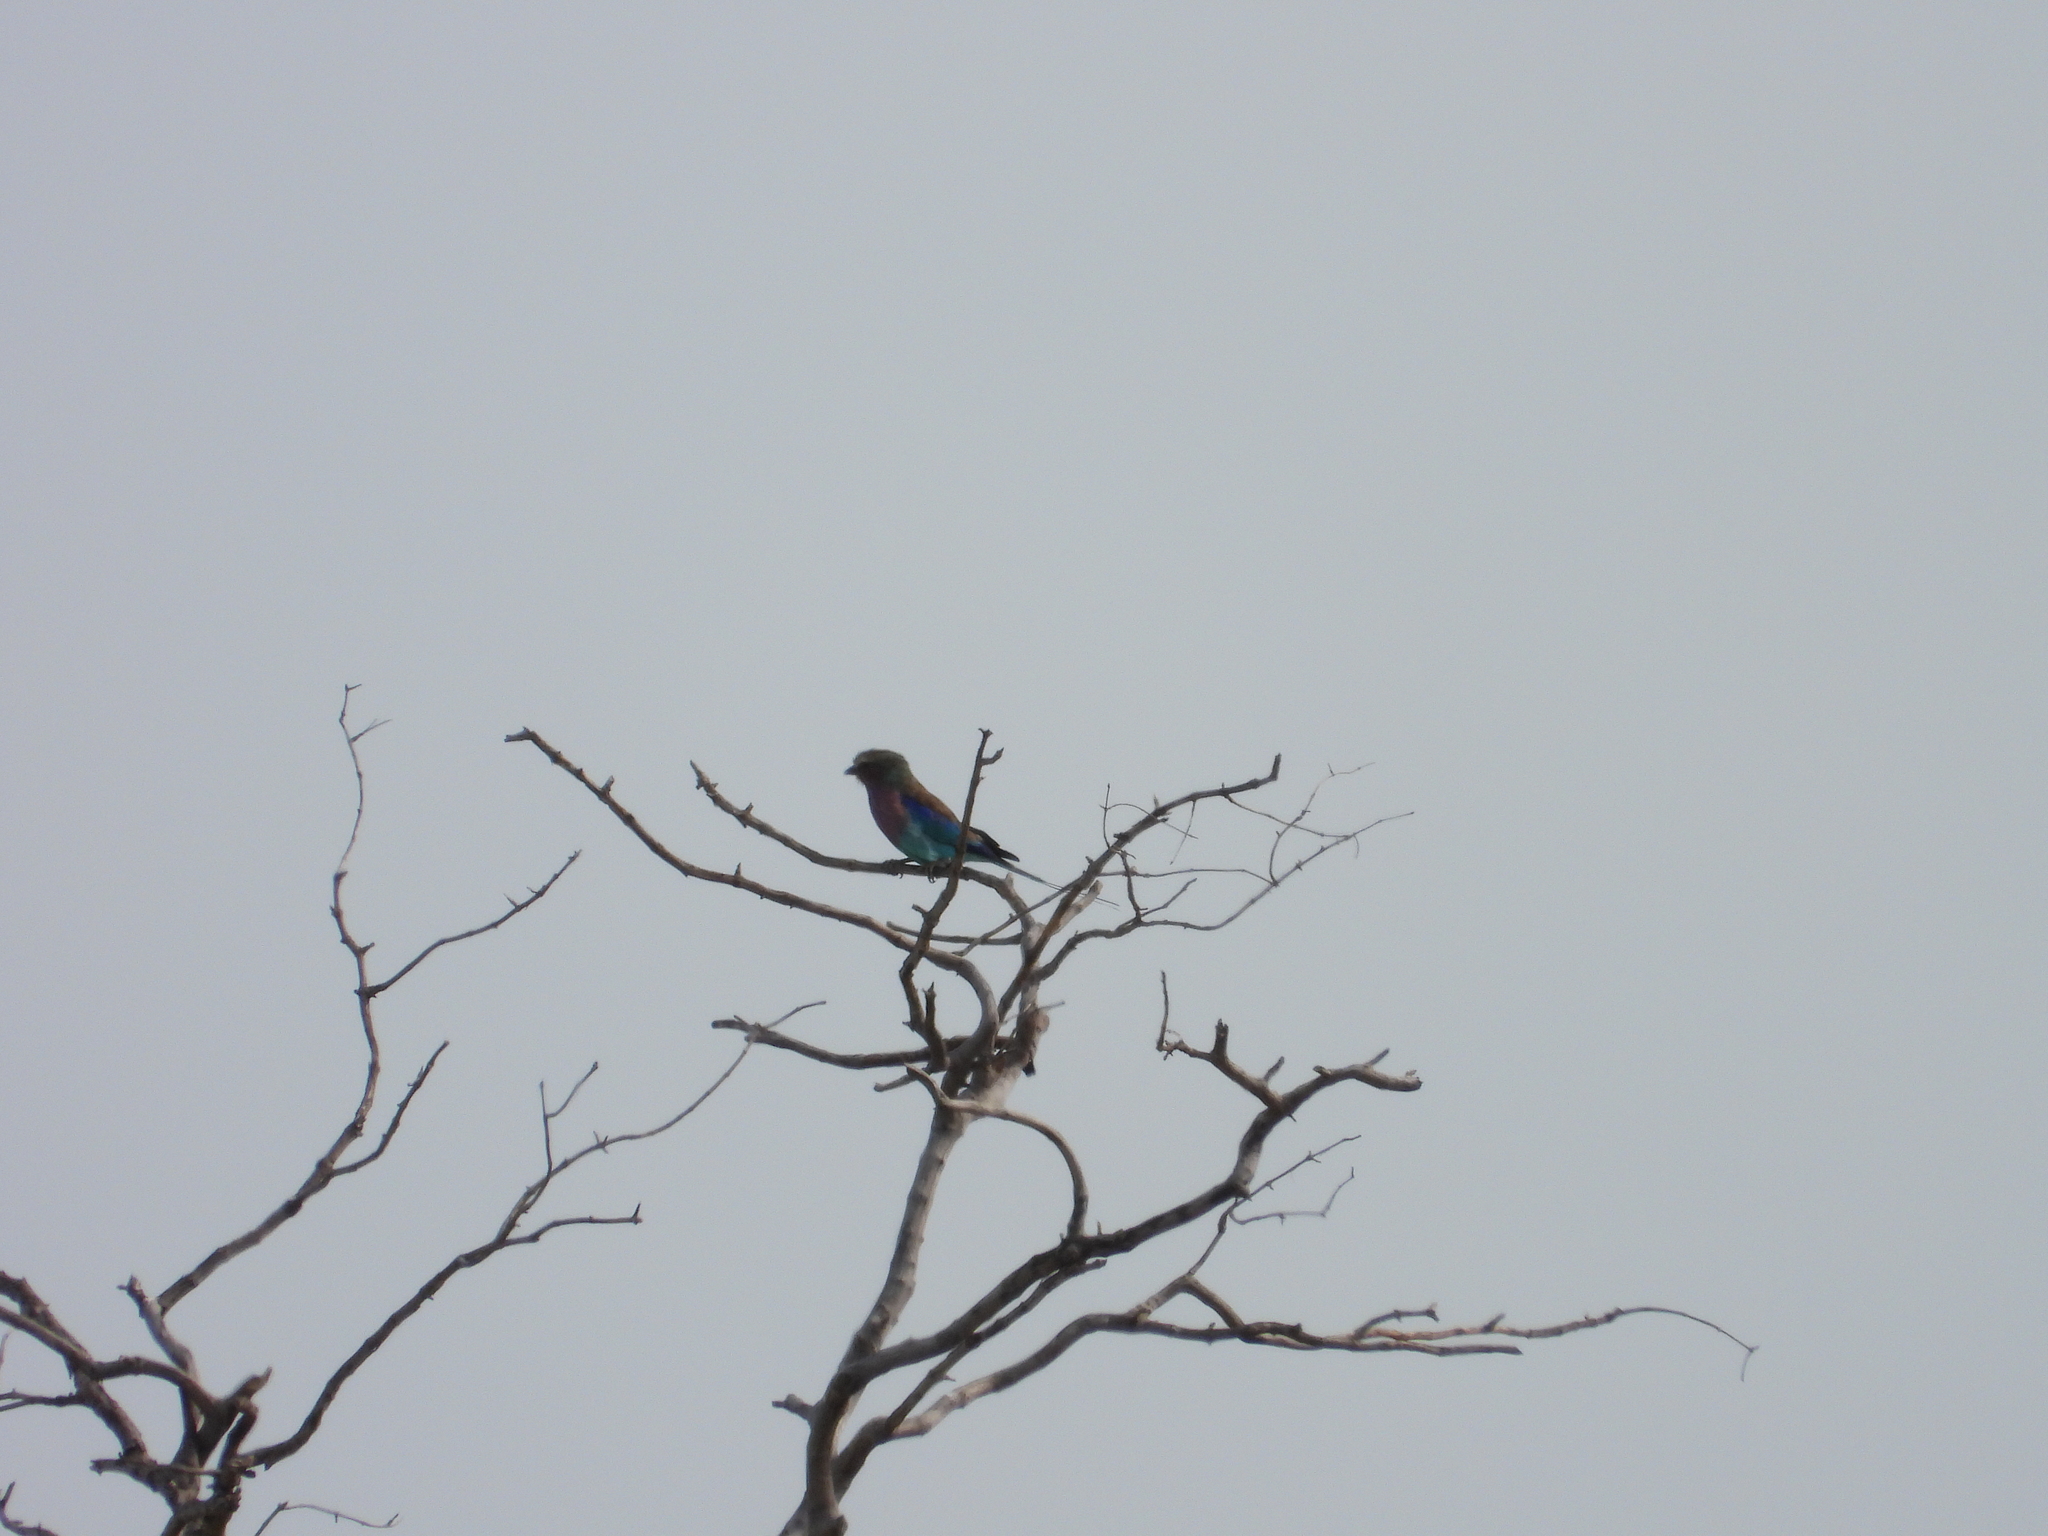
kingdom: Animalia
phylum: Chordata
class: Aves
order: Coraciiformes
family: Coraciidae
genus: Coracias
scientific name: Coracias caudatus
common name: Lilac-breasted roller
